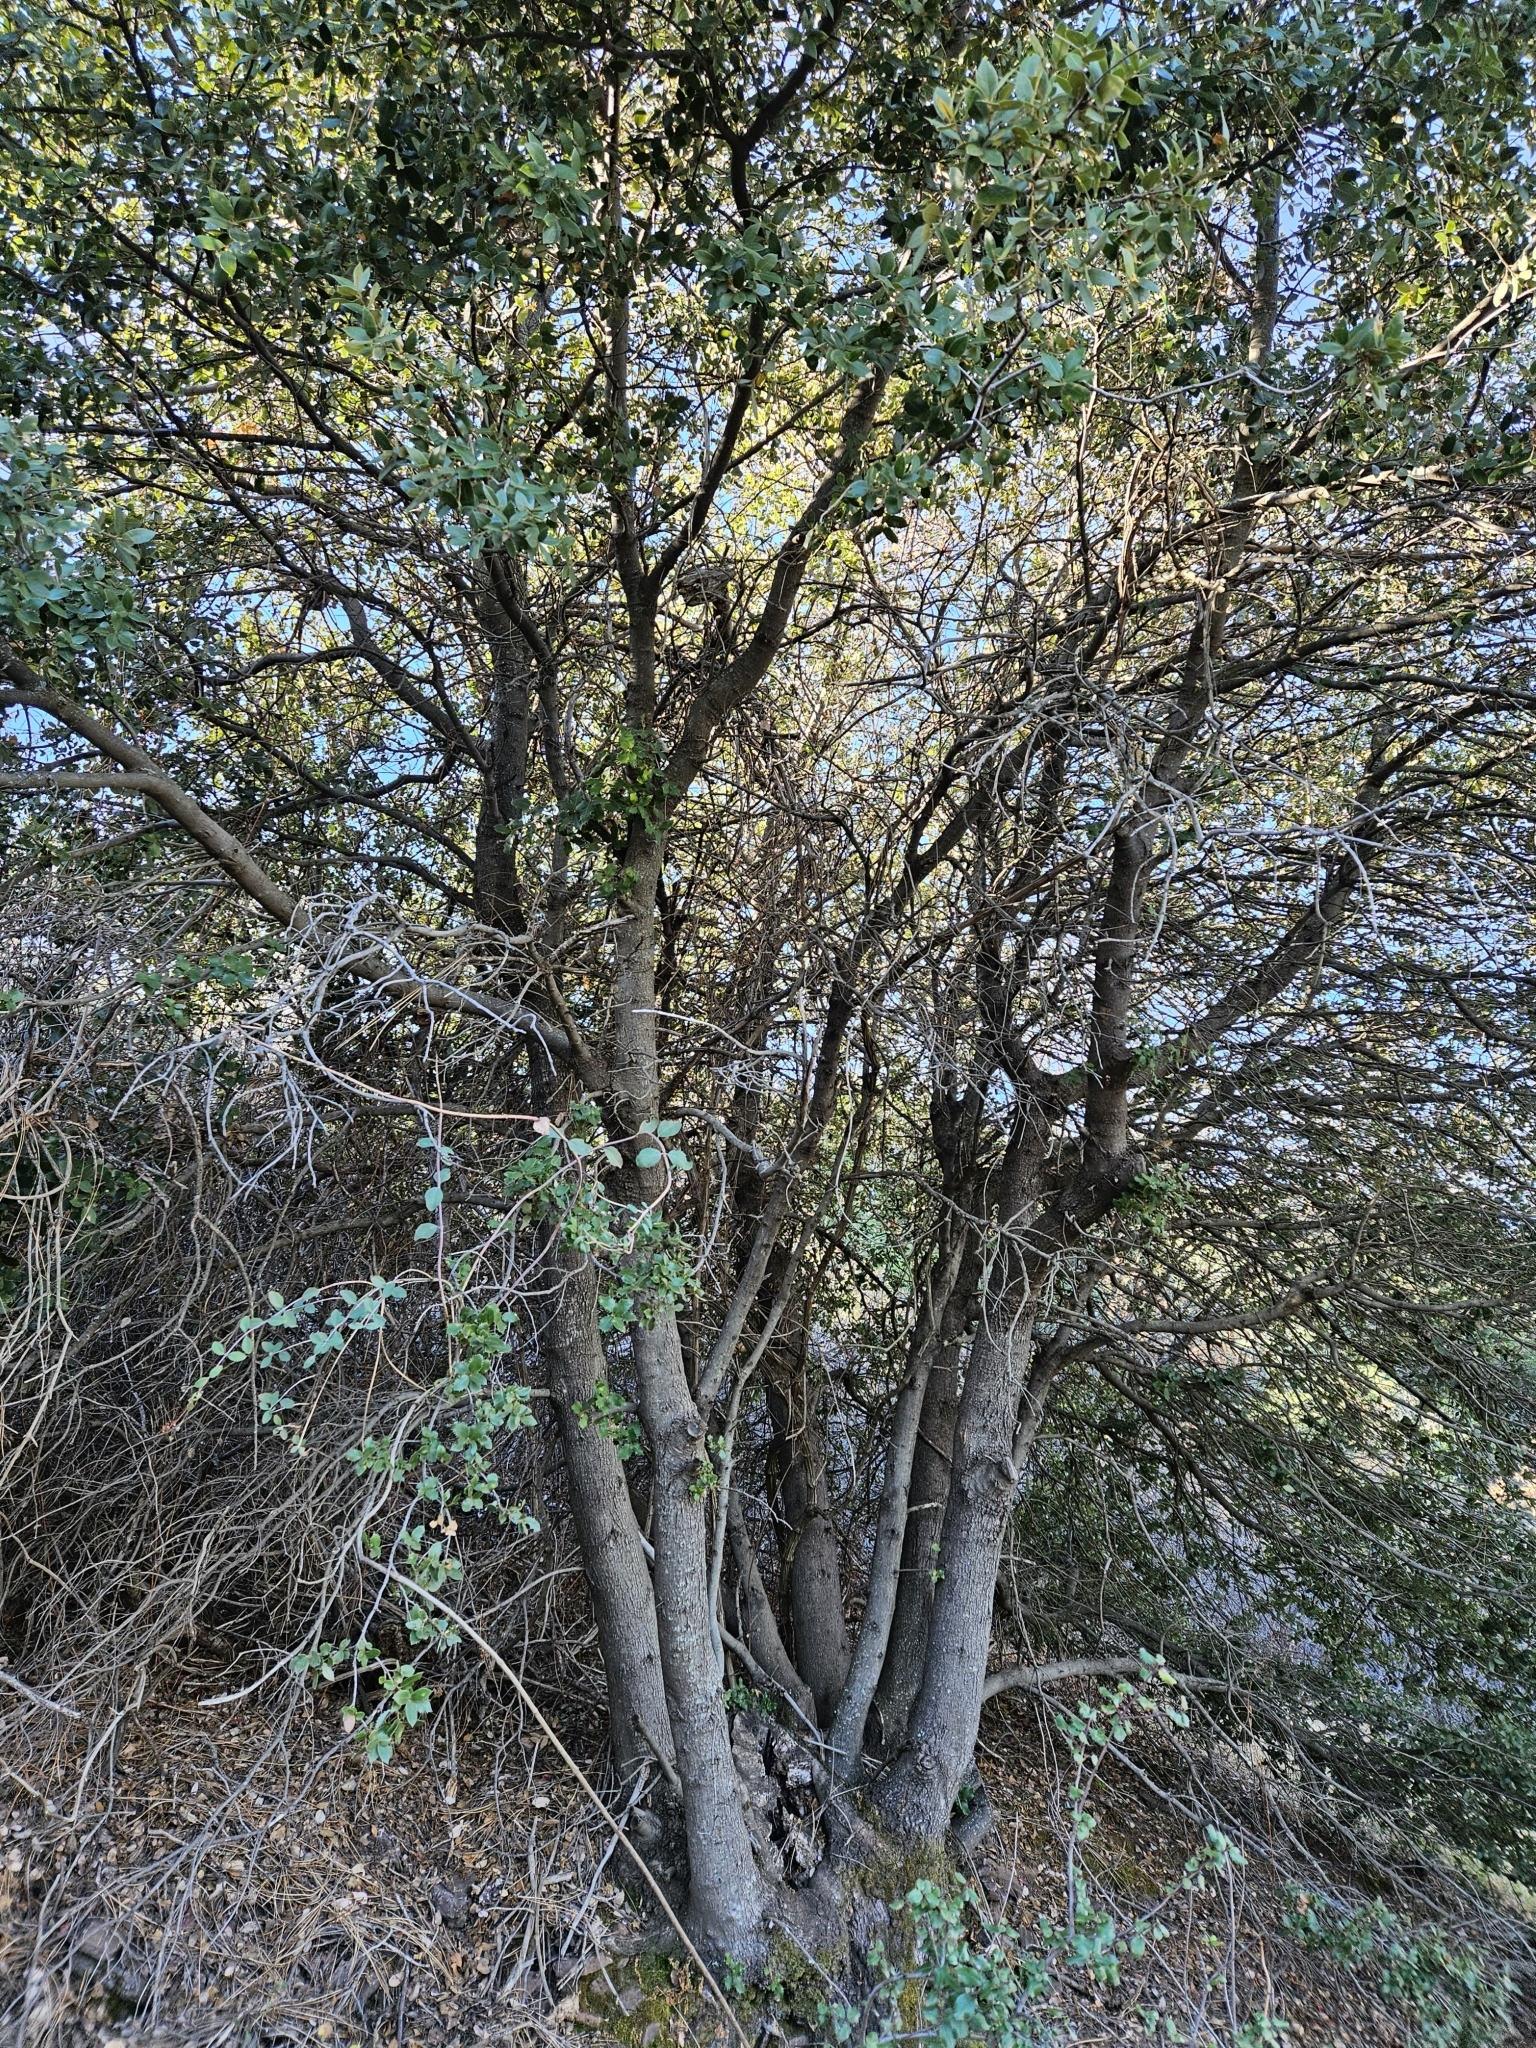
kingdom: Plantae
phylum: Tracheophyta
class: Magnoliopsida
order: Fagales
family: Fagaceae
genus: Quercus
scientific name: Quercus chrysolepis
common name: Canyon live oak
